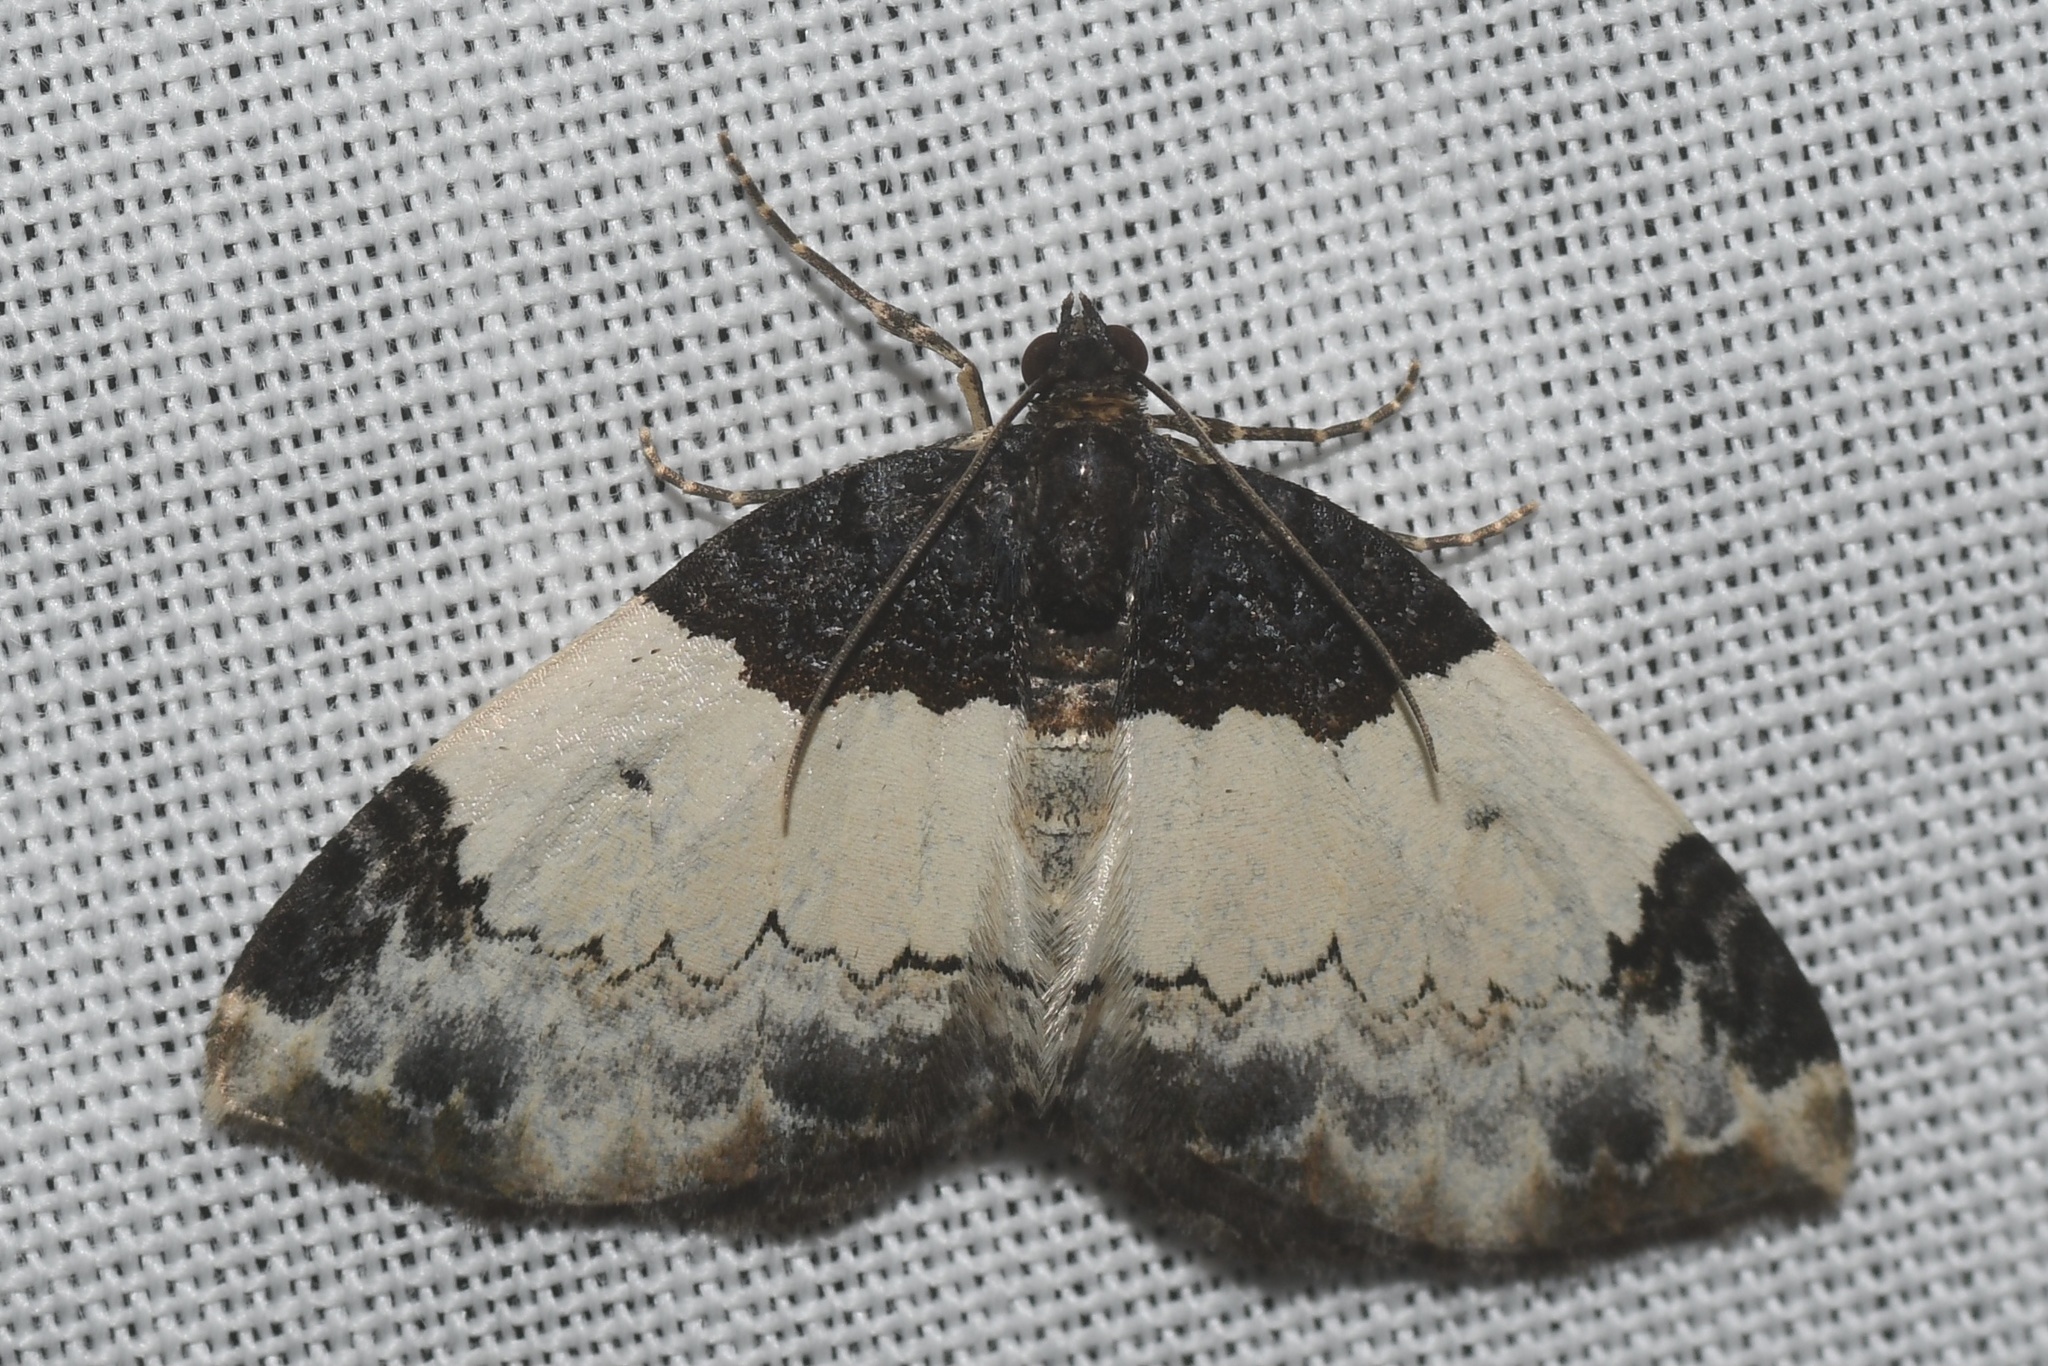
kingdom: Animalia
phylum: Arthropoda
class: Insecta
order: Lepidoptera
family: Geometridae
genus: Mesoleuca
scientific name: Mesoleuca ruficillata
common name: White-ribboned carpet moth
